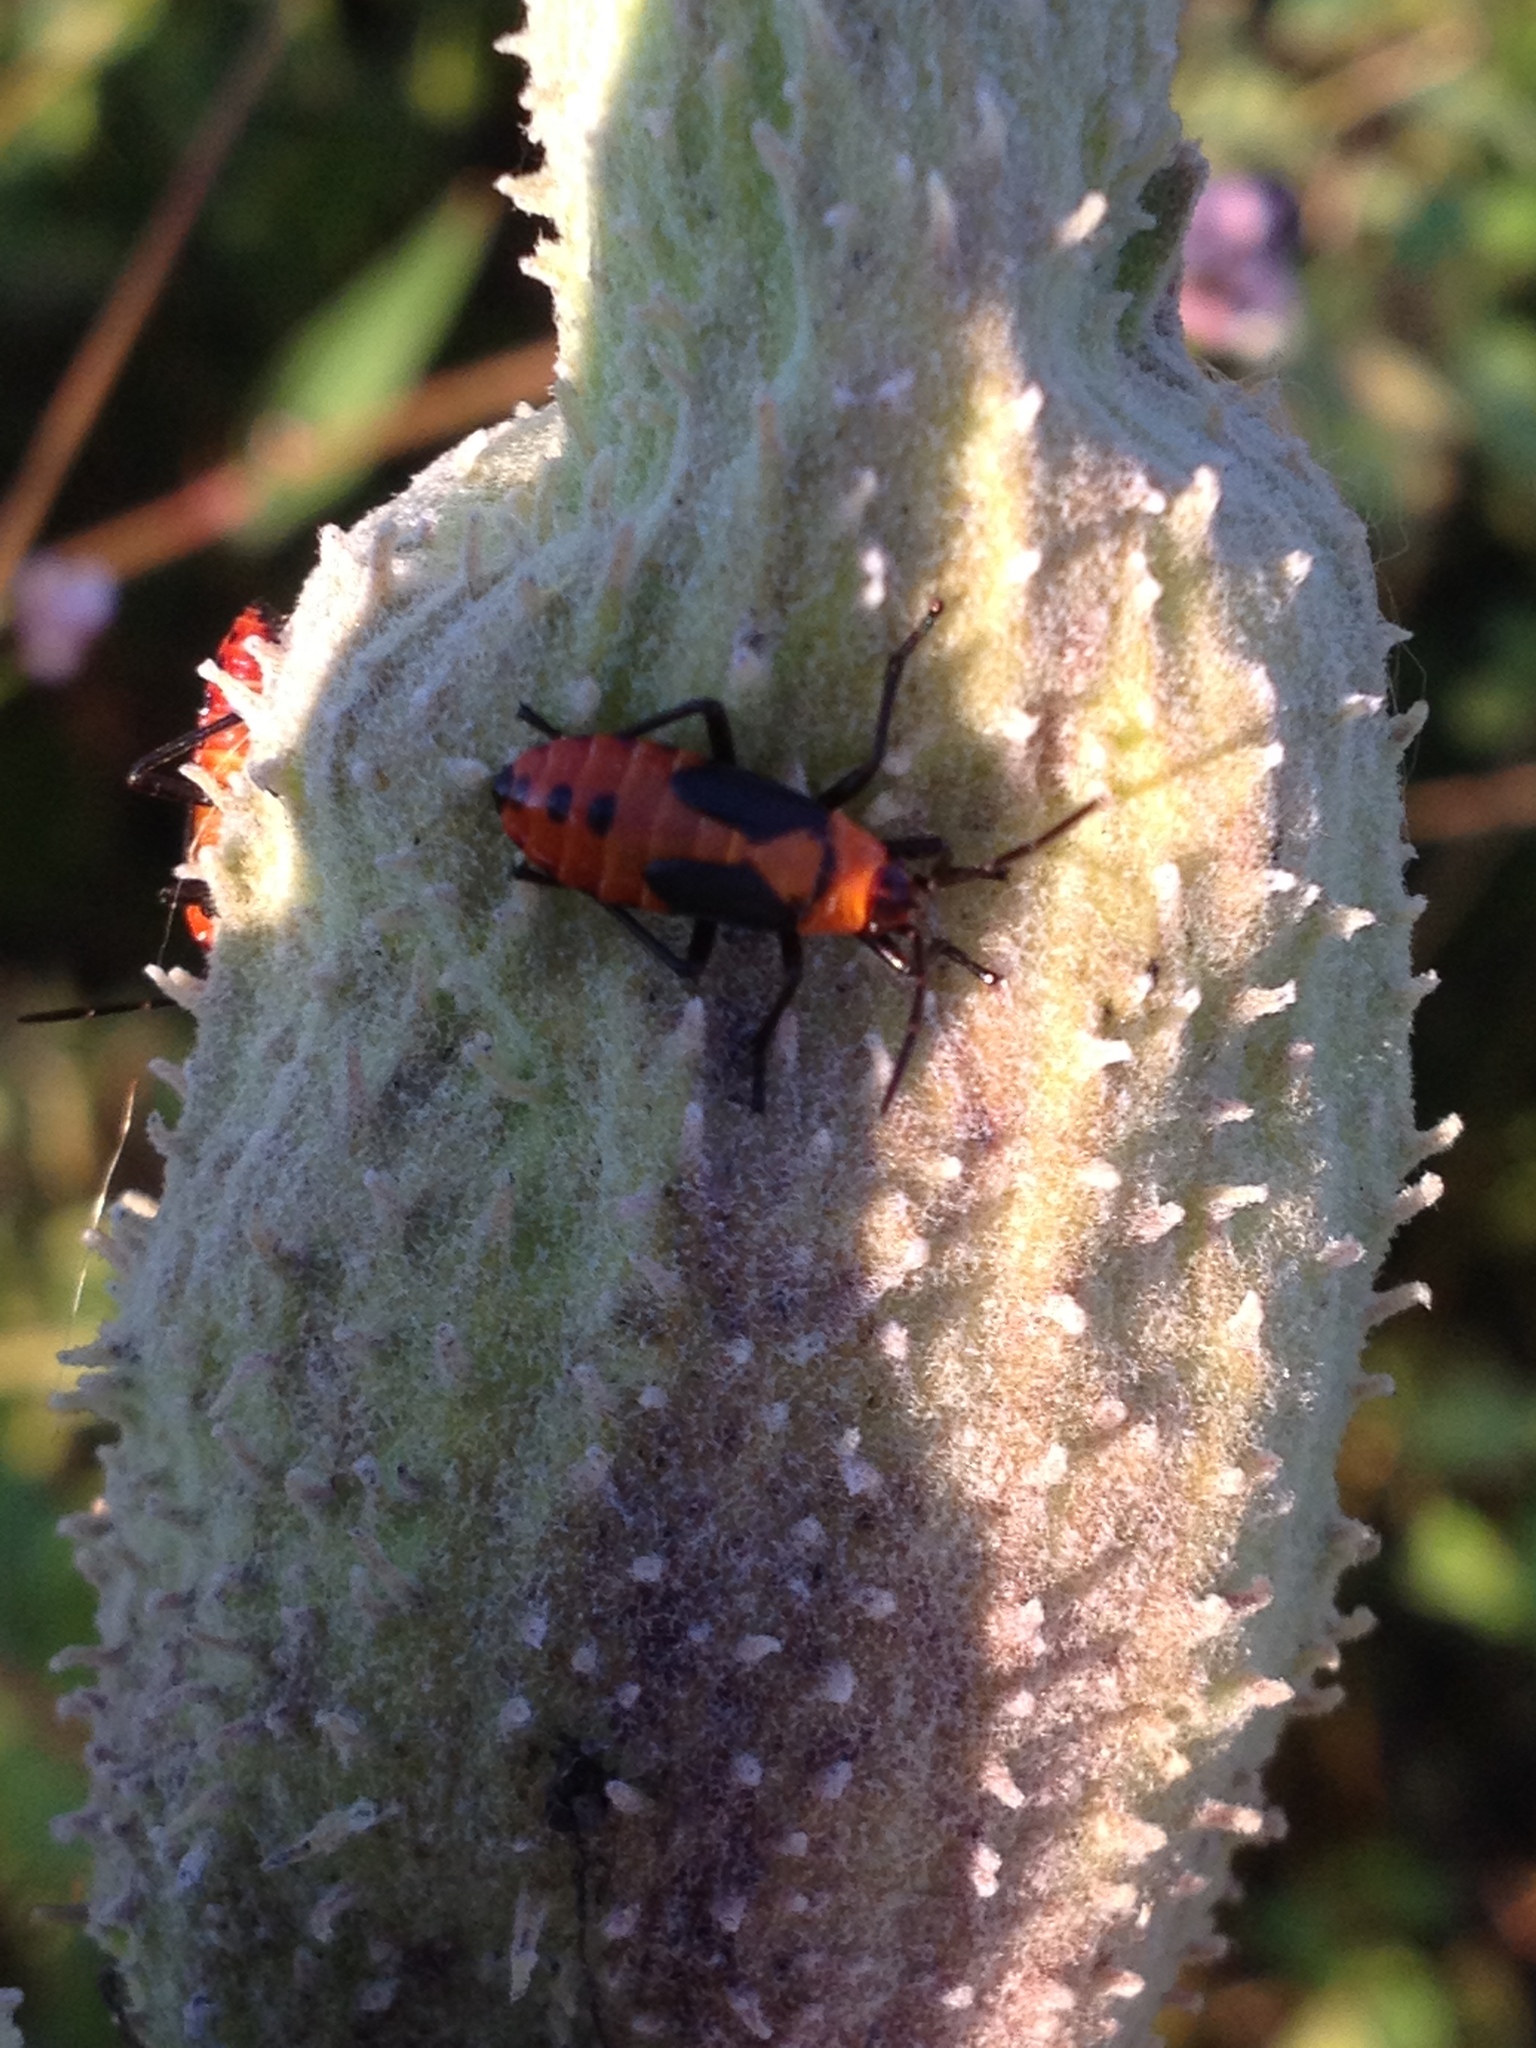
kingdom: Animalia
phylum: Arthropoda
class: Insecta
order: Hemiptera
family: Lygaeidae
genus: Oncopeltus
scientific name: Oncopeltus fasciatus
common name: Large milkweed bug
